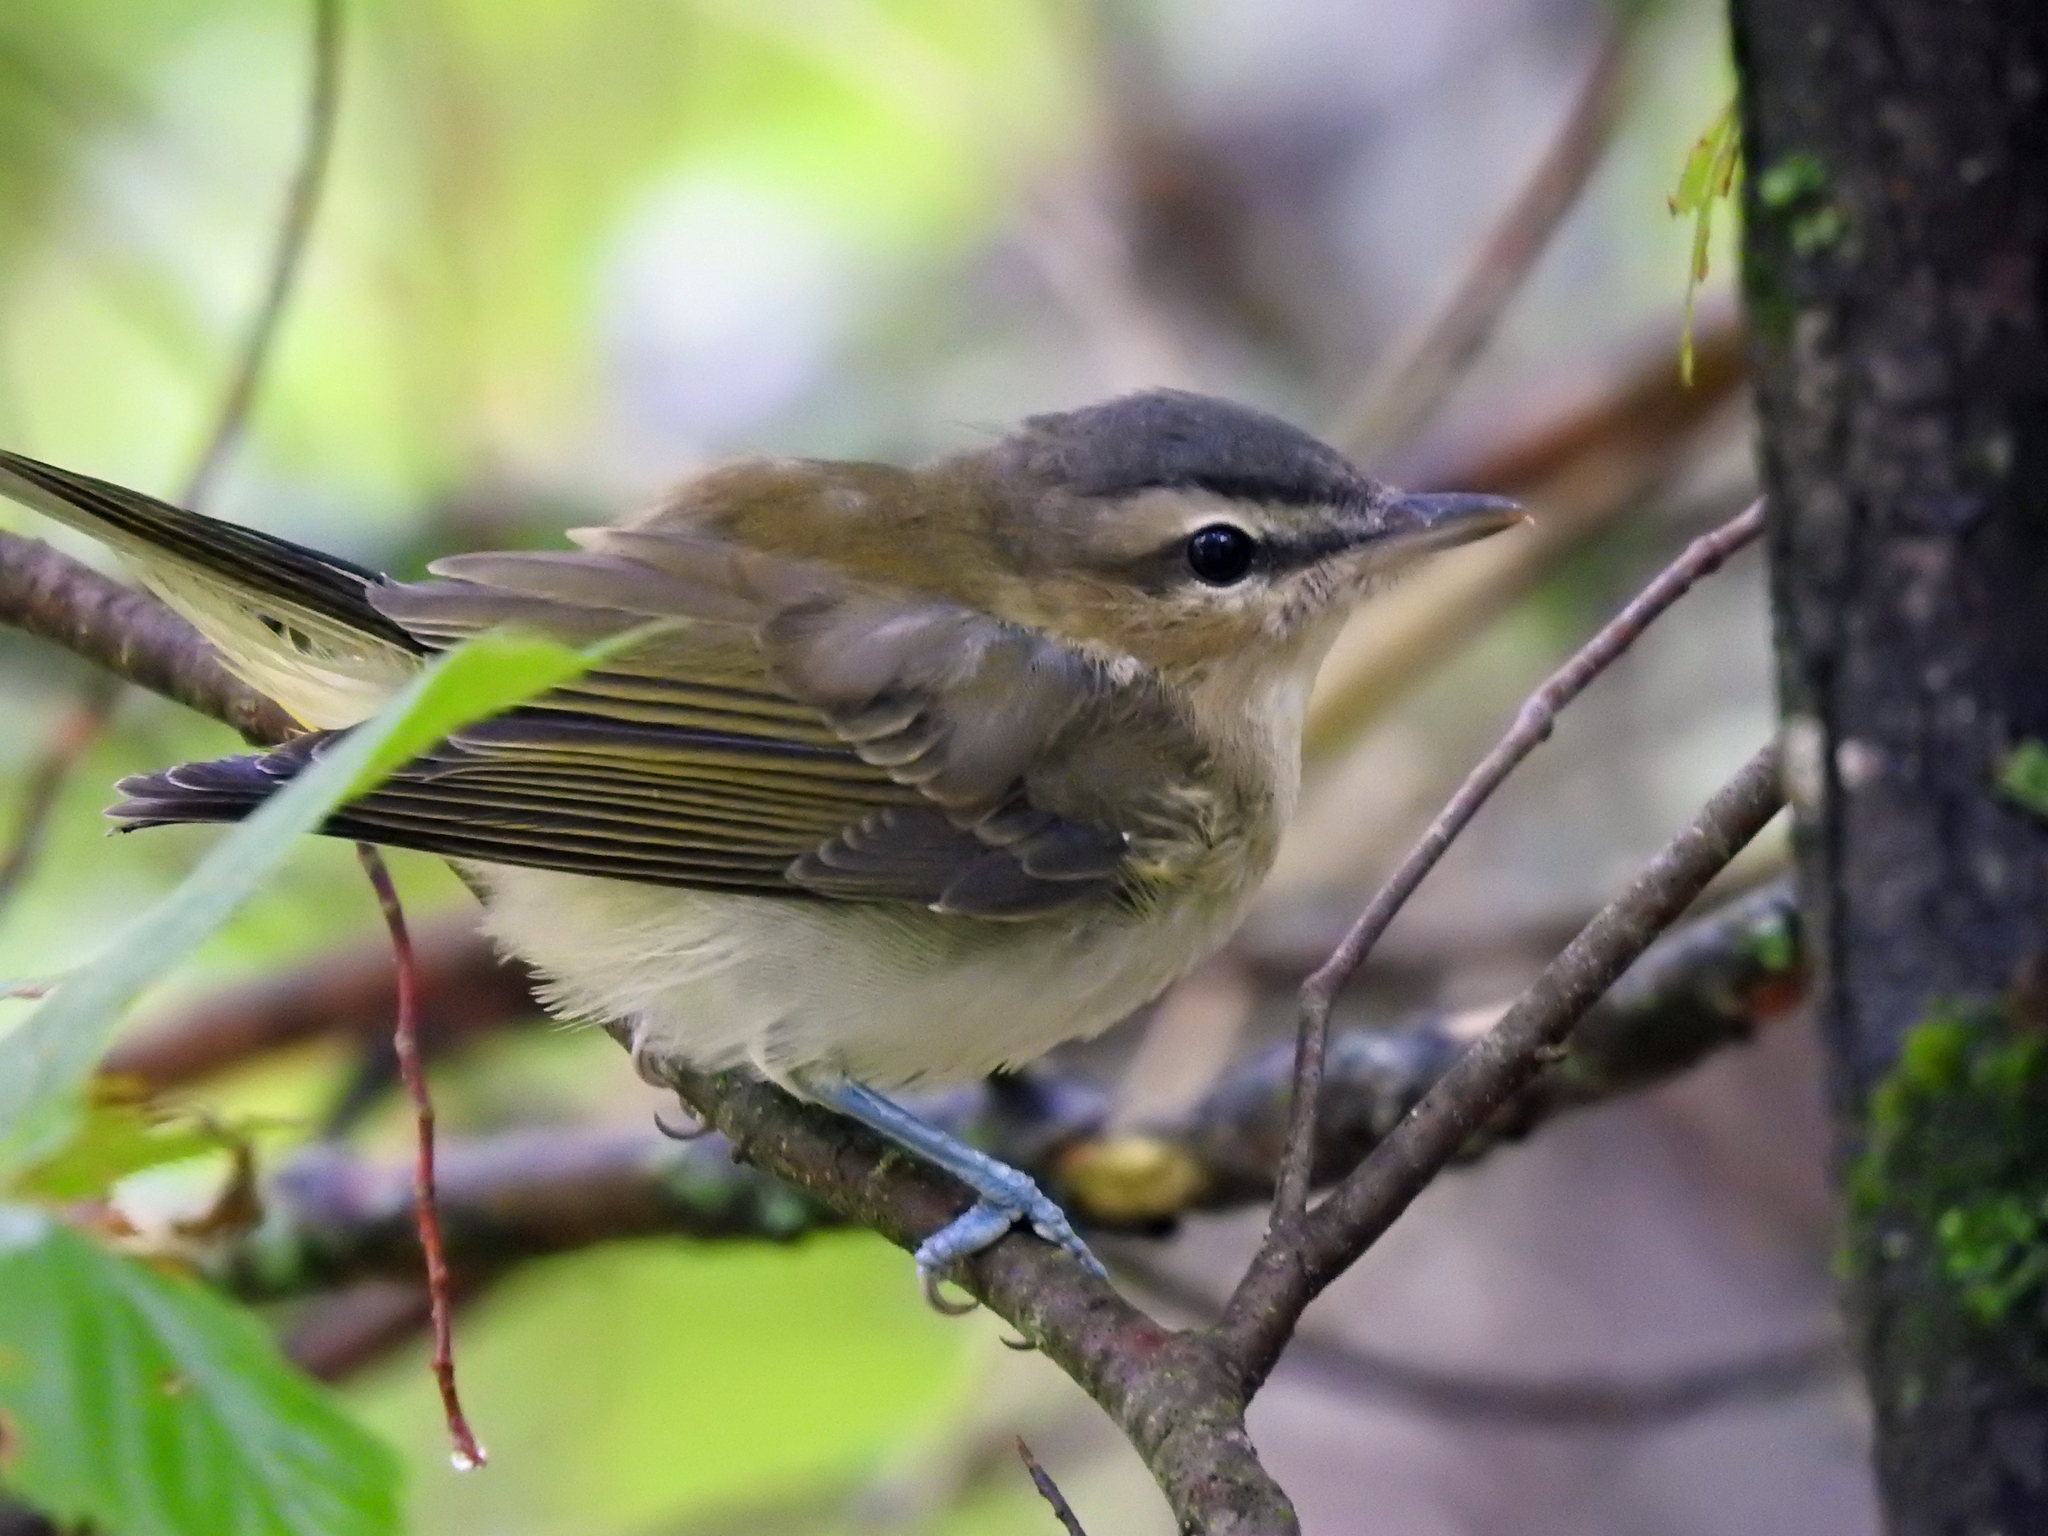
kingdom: Animalia
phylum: Chordata
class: Aves
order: Passeriformes
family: Vireonidae
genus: Vireo
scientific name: Vireo olivaceus
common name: Red-eyed vireo
